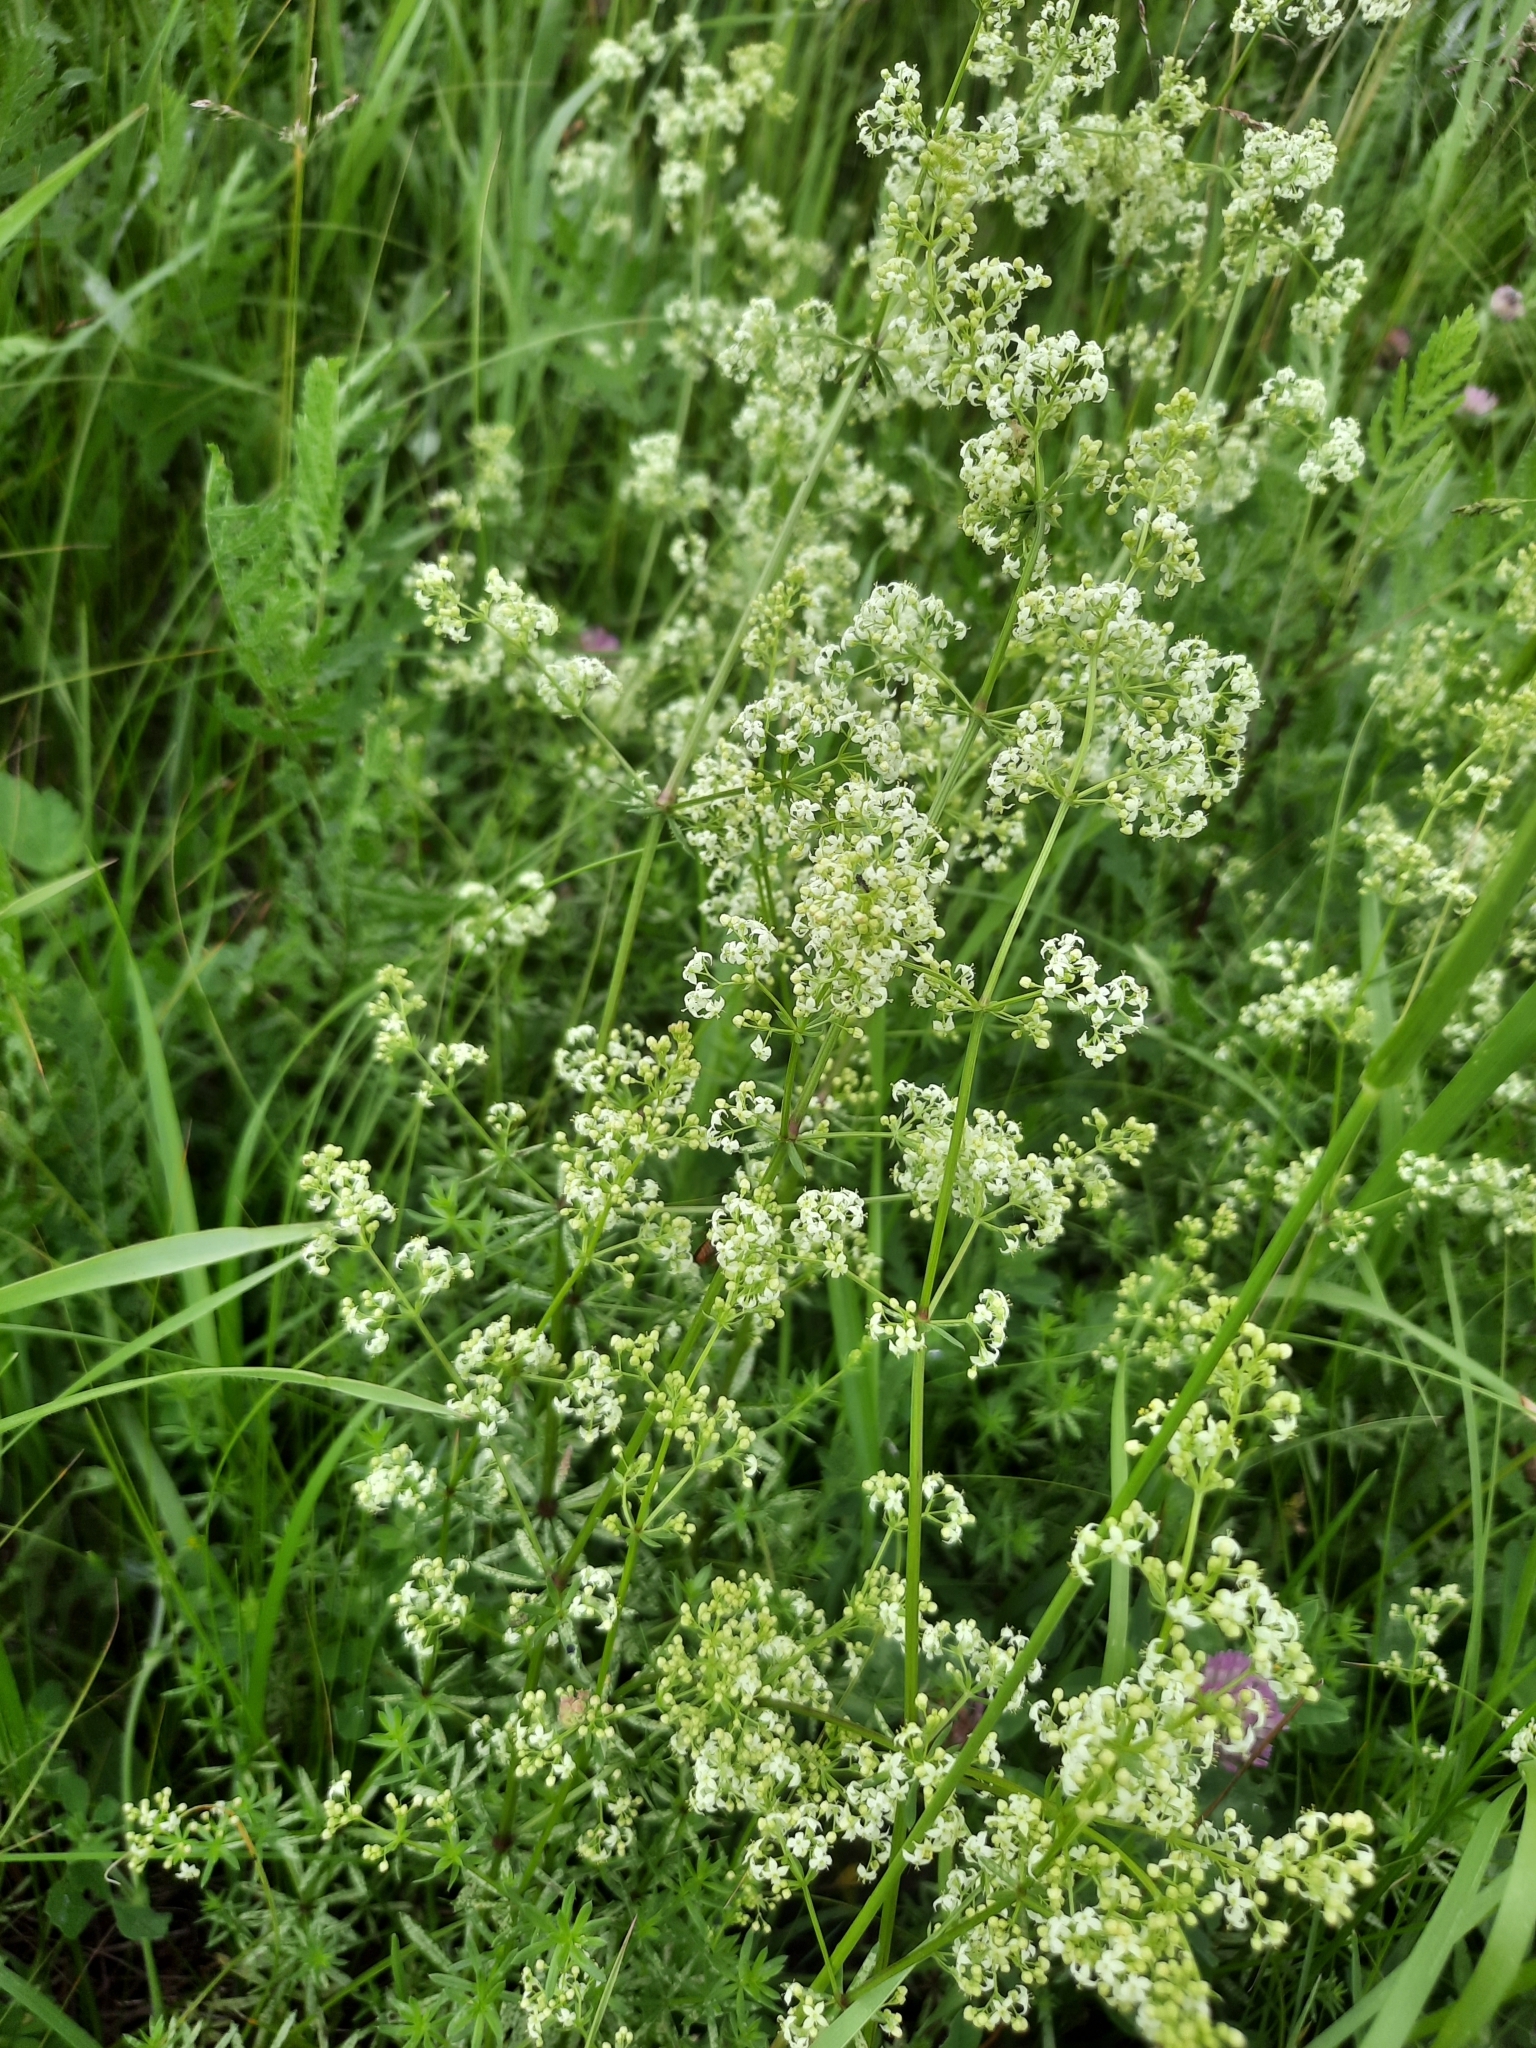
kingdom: Plantae
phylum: Tracheophyta
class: Magnoliopsida
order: Gentianales
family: Rubiaceae
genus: Galium
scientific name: Galium mollugo
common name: Hedge bedstraw
